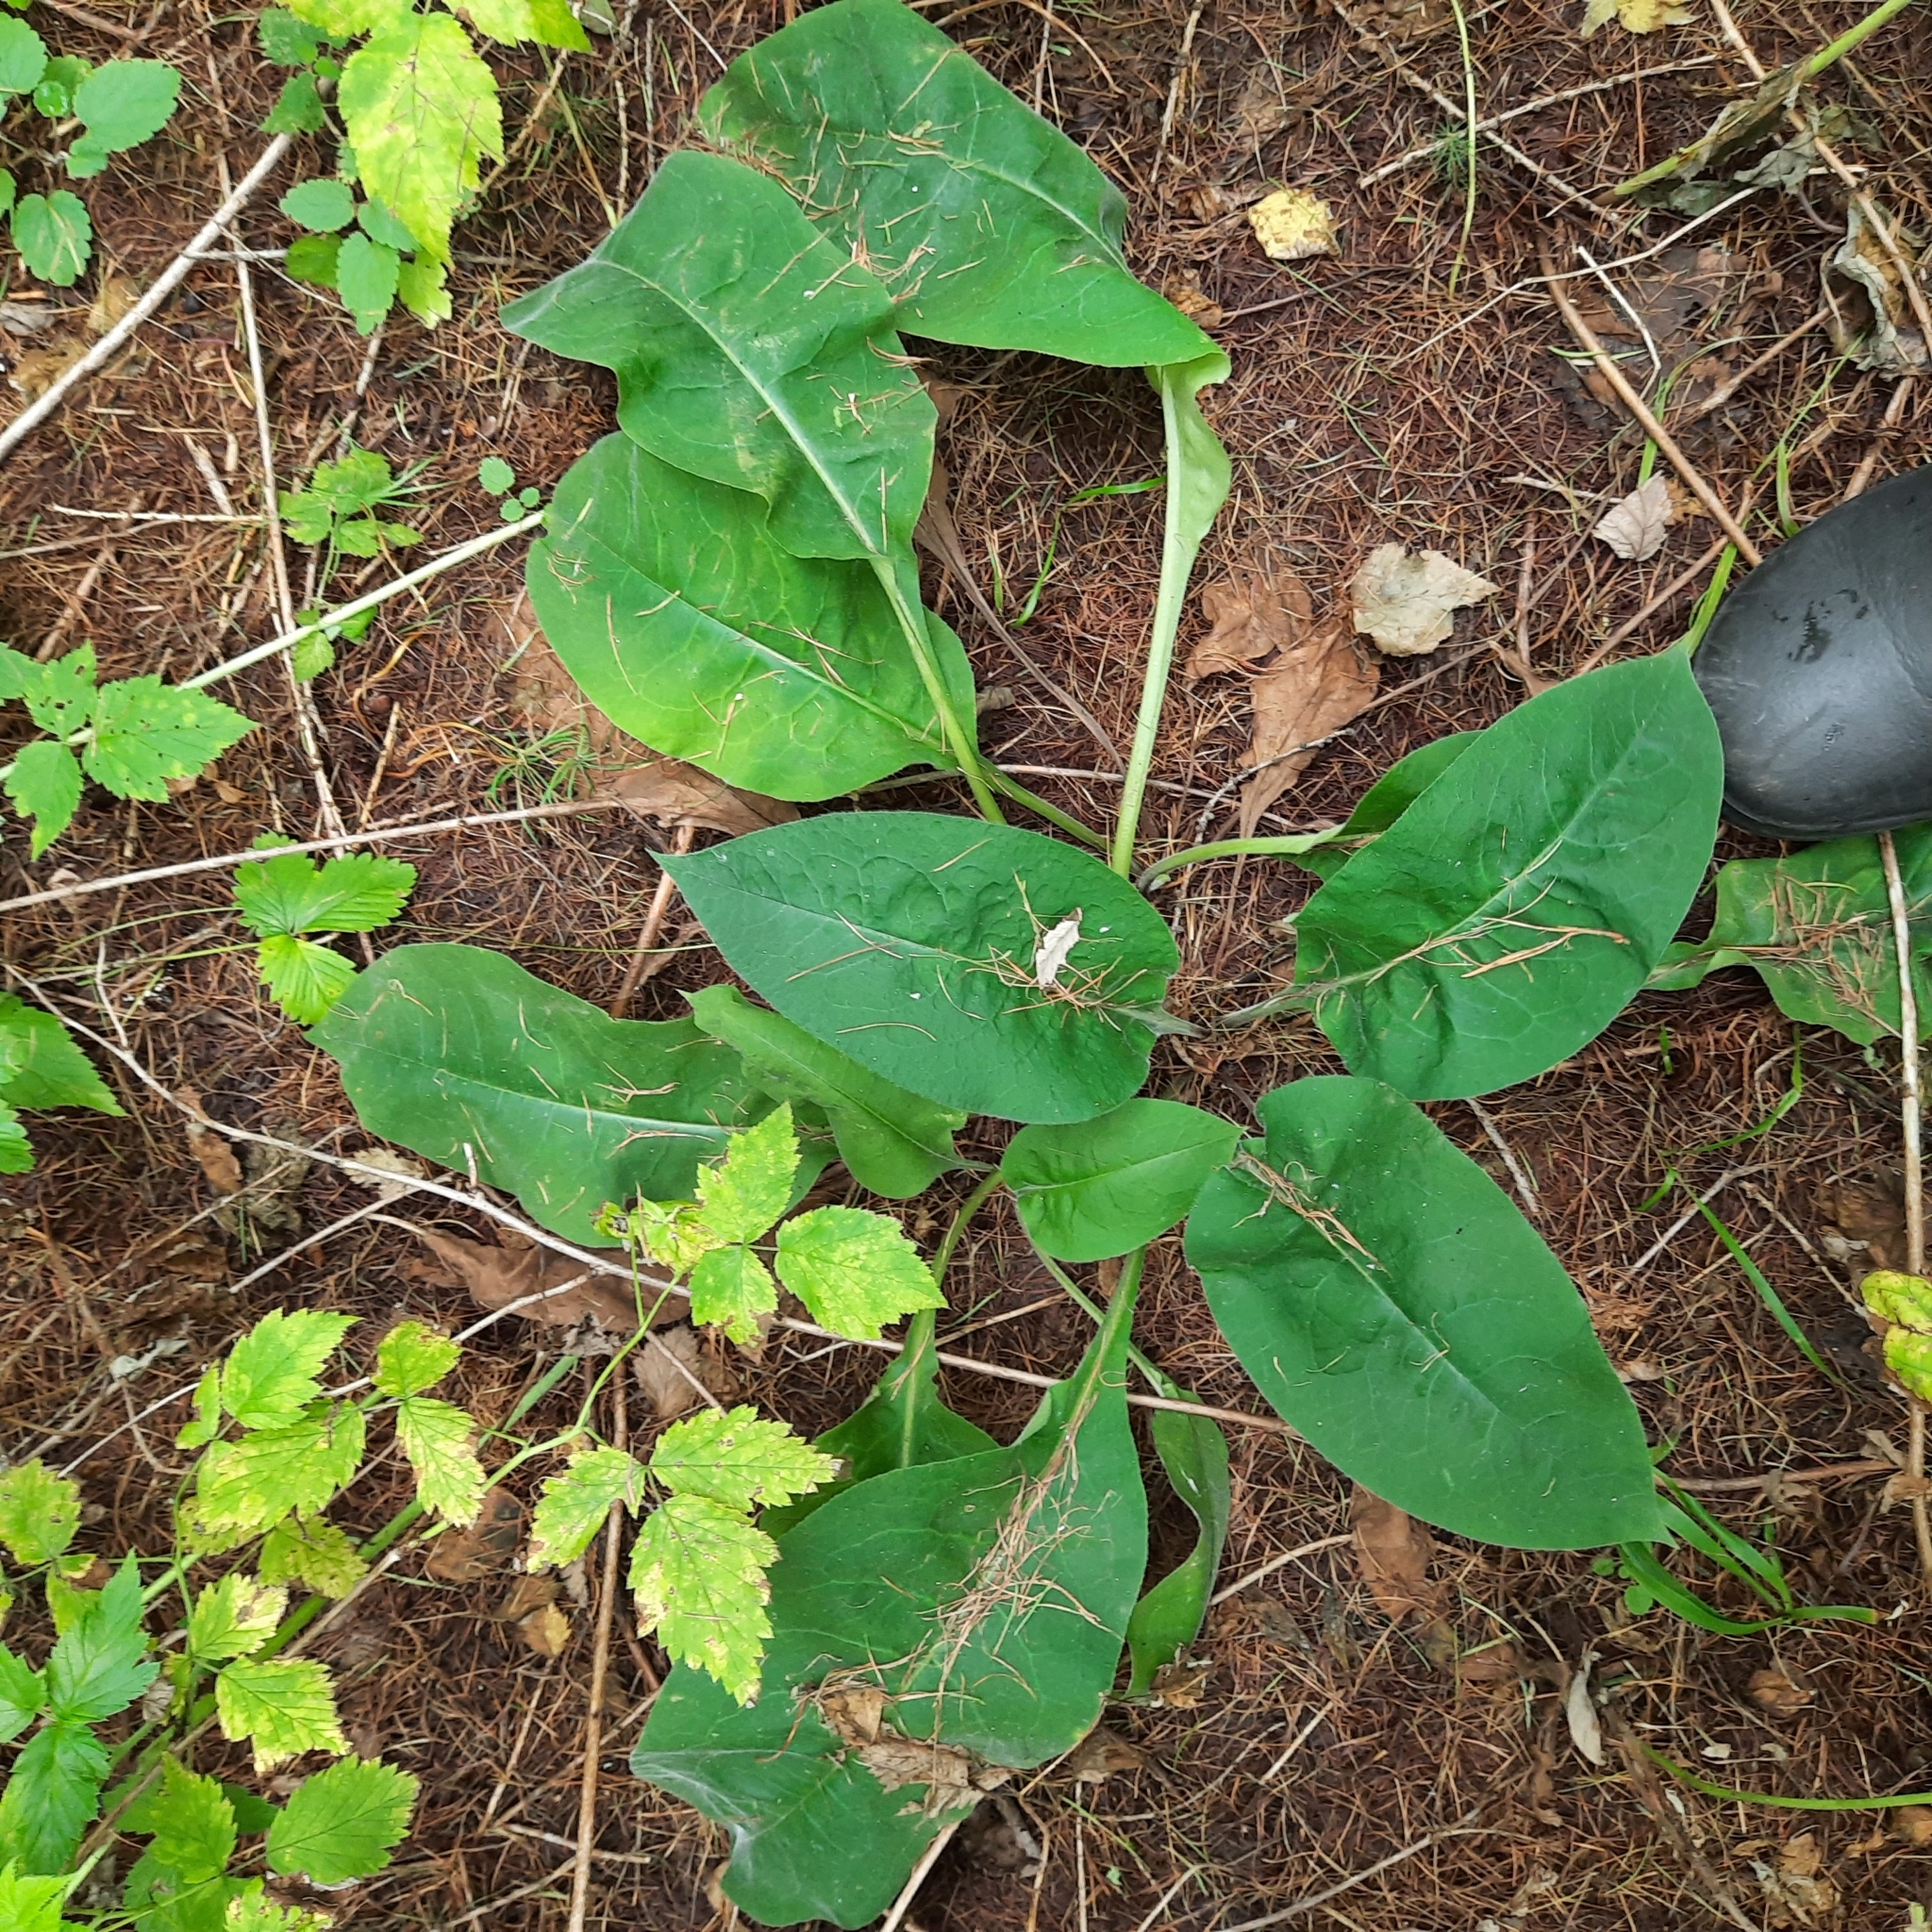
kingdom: Plantae
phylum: Tracheophyta
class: Magnoliopsida
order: Boraginales
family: Boraginaceae
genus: Pulmonaria
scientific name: Pulmonaria mollis
